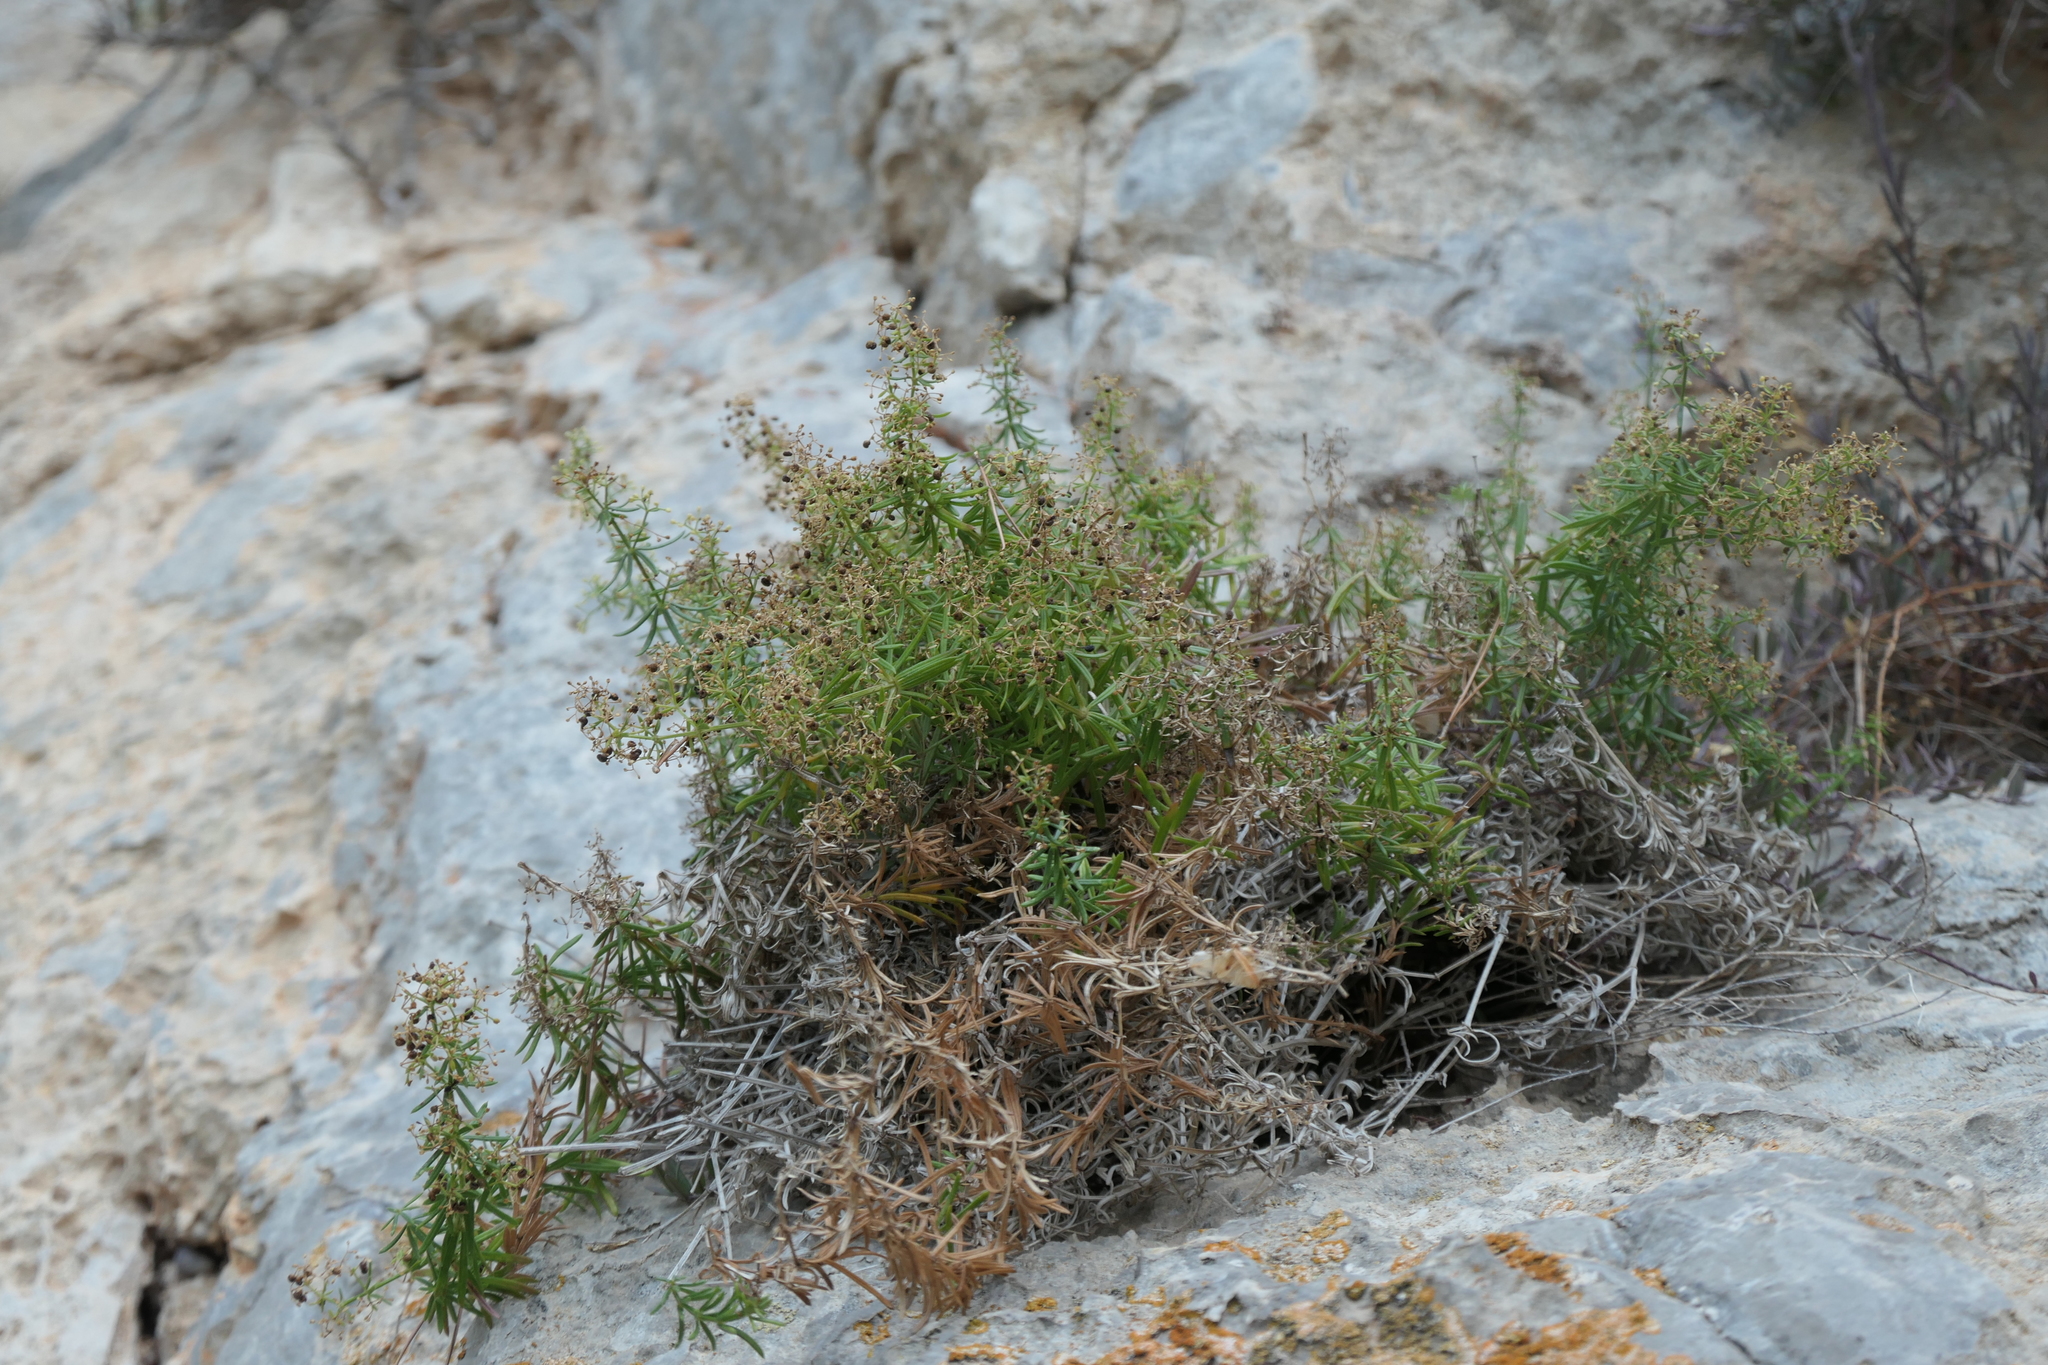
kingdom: Plantae
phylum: Tracheophyta
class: Magnoliopsida
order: Gentianales
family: Rubiaceae
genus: Rubia
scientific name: Rubia balearica
